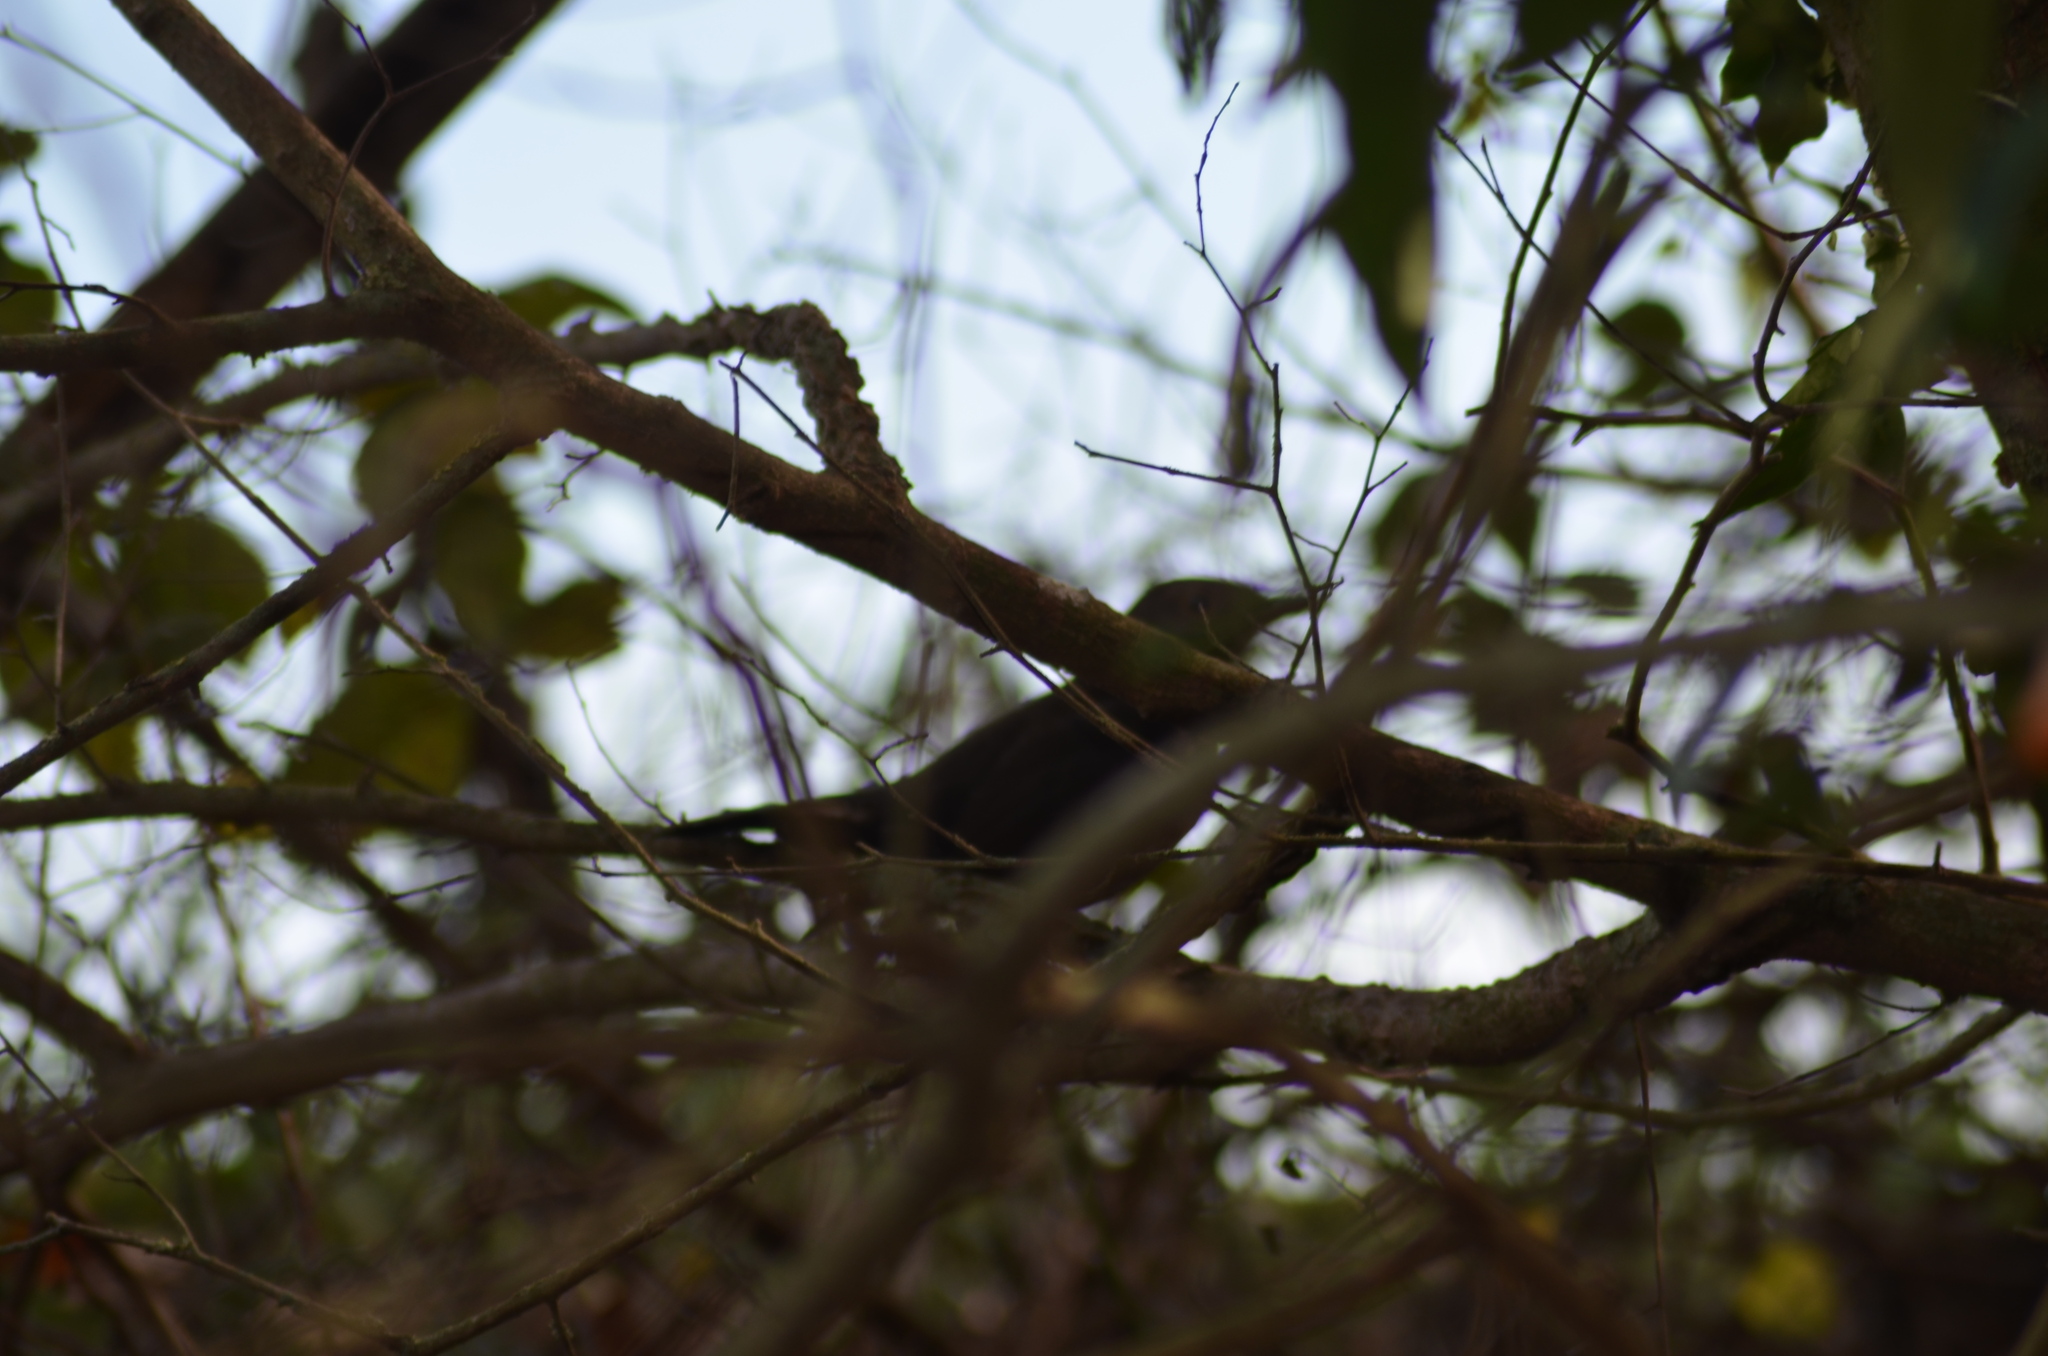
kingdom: Animalia
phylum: Chordata
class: Aves
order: Passeriformes
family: Turdidae
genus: Turdus
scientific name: Turdus merula
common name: Common blackbird
